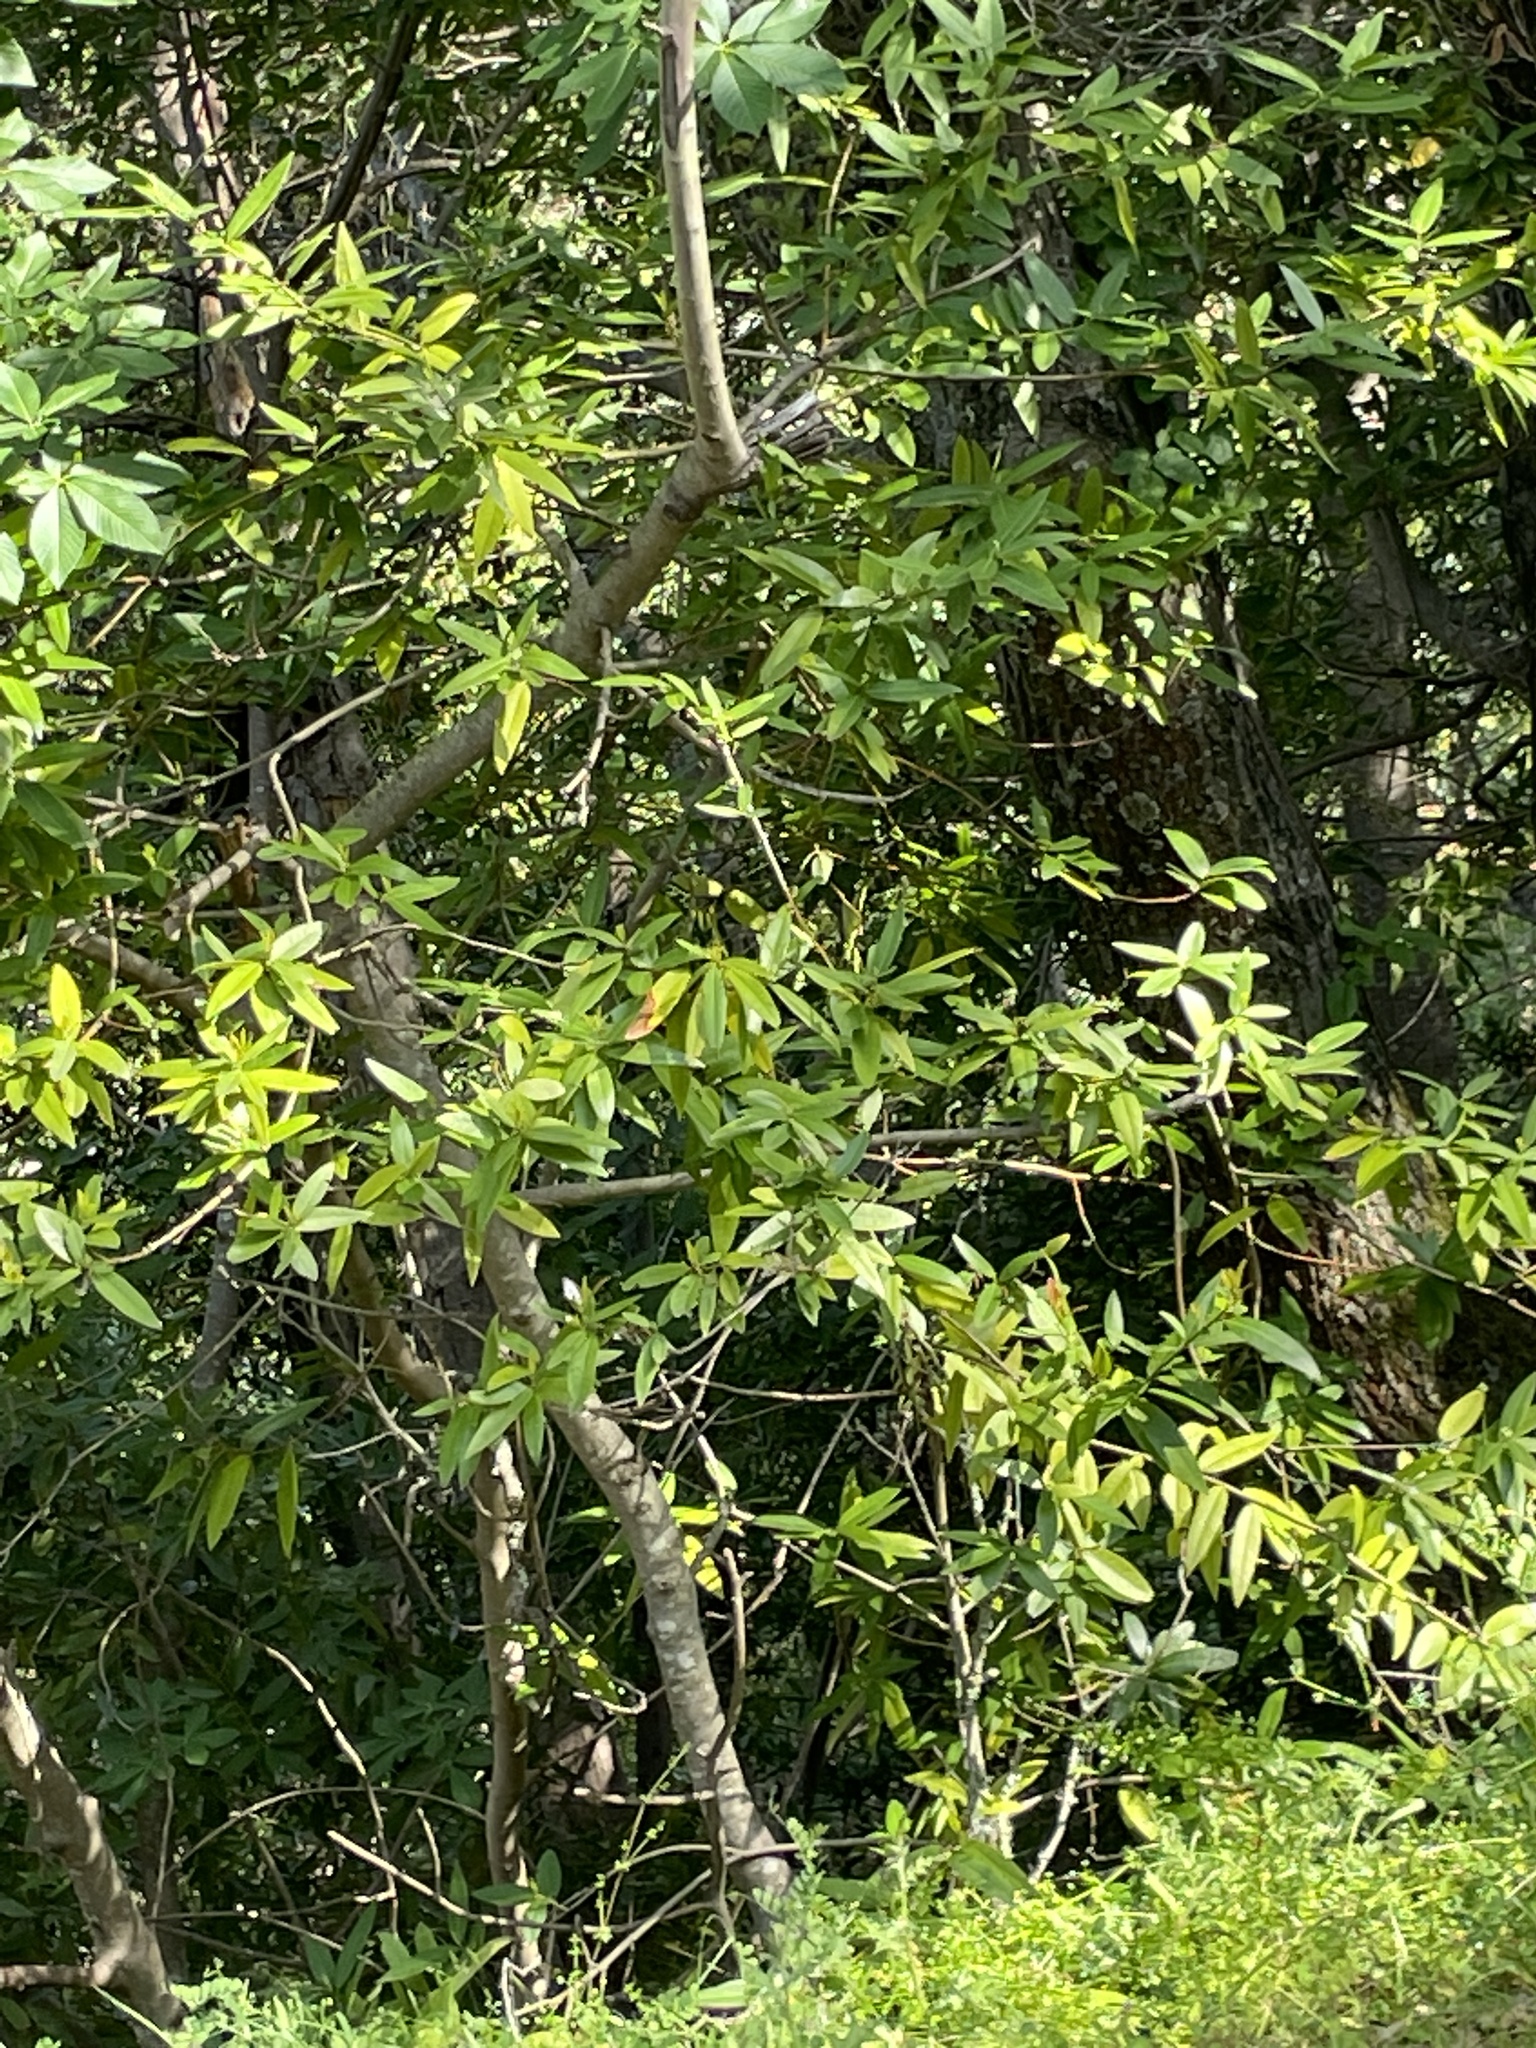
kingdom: Plantae
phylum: Tracheophyta
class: Magnoliopsida
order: Laurales
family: Lauraceae
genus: Umbellularia
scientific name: Umbellularia californica
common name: California bay
